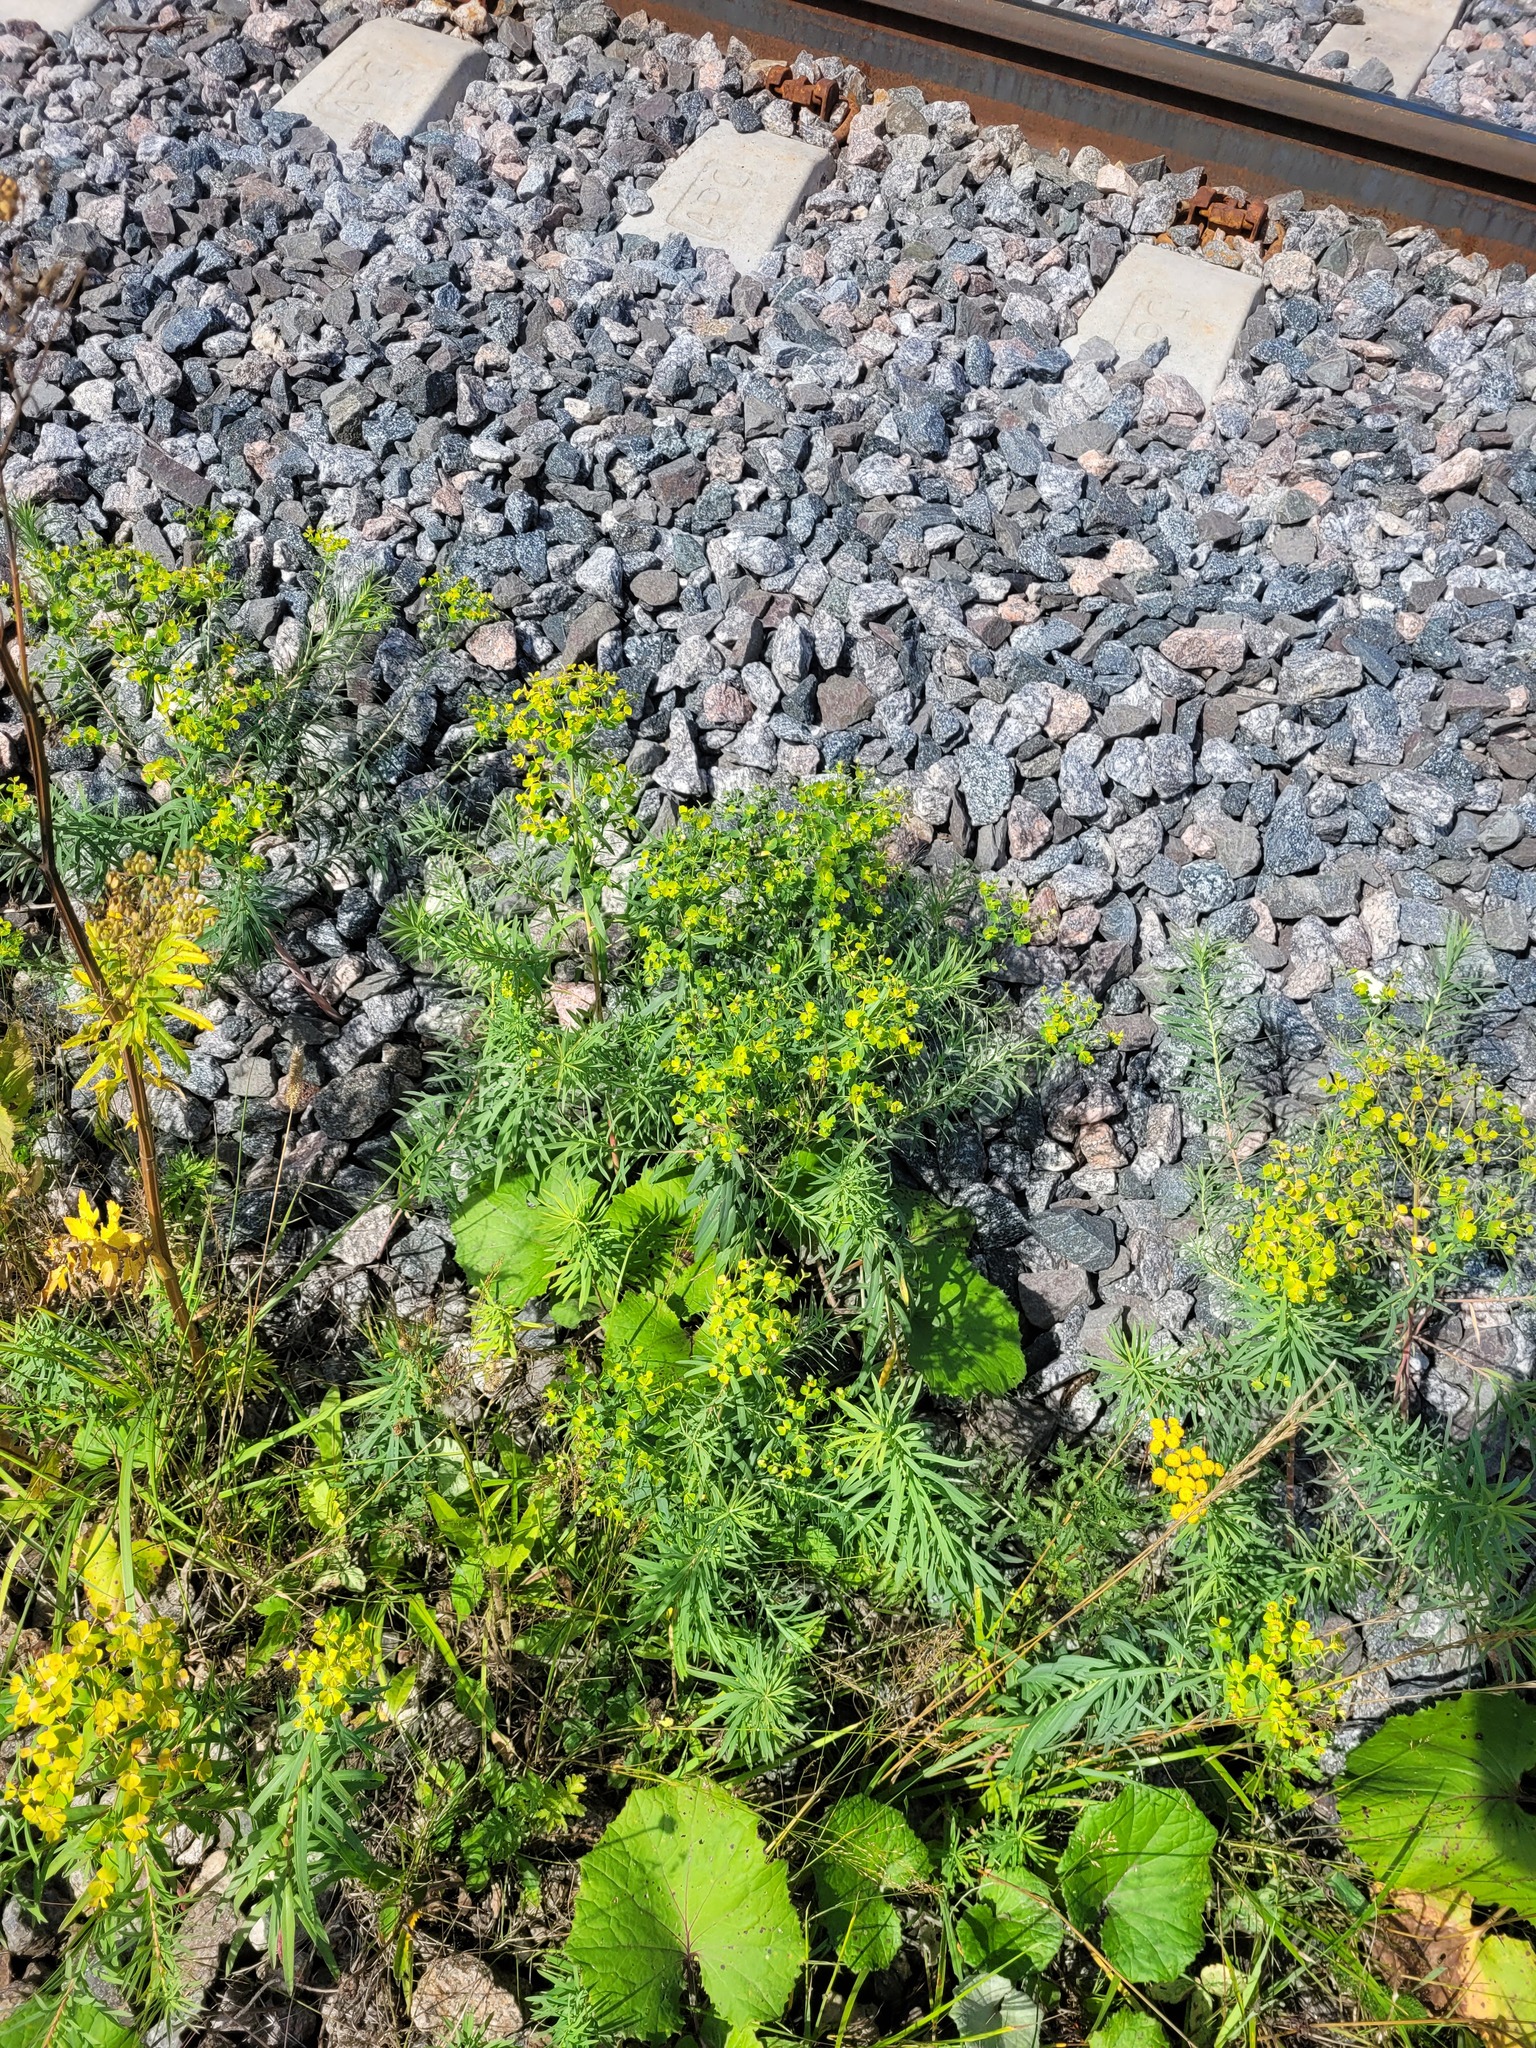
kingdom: Plantae
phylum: Tracheophyta
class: Magnoliopsida
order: Malpighiales
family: Euphorbiaceae
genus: Euphorbia
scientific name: Euphorbia virgata
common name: Leafy spurge
